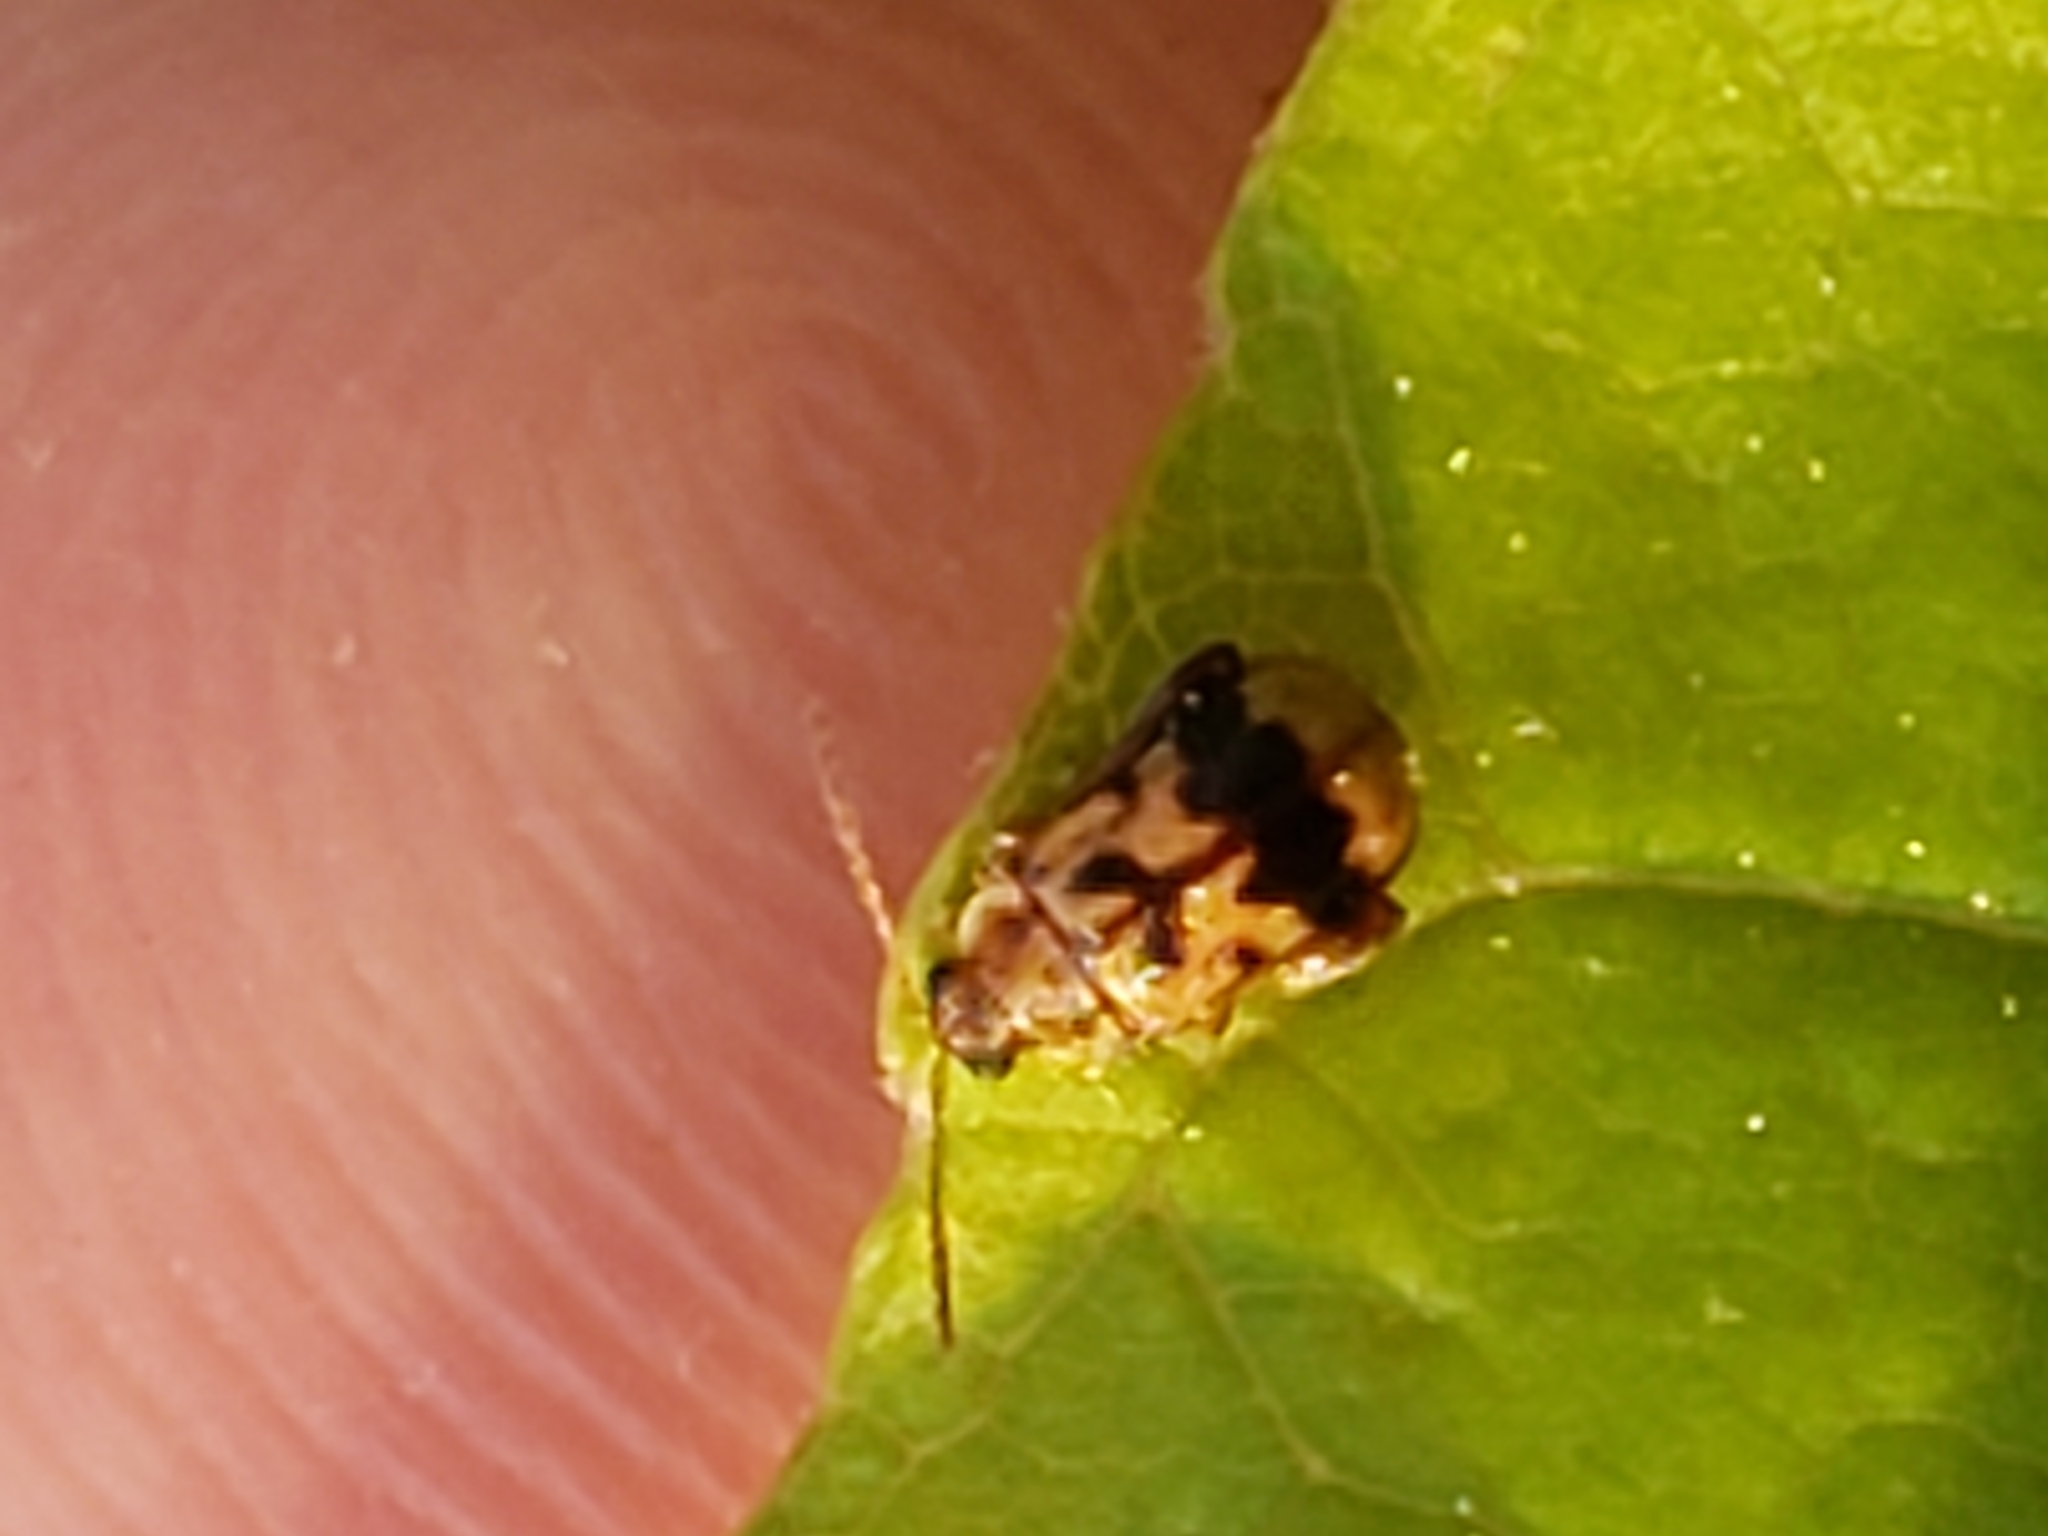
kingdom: Animalia
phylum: Arthropoda
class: Insecta
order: Coleoptera
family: Chrysomelidae
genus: Capraita
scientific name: Capraita sexmaculata
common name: Charlie brown flea beetle
